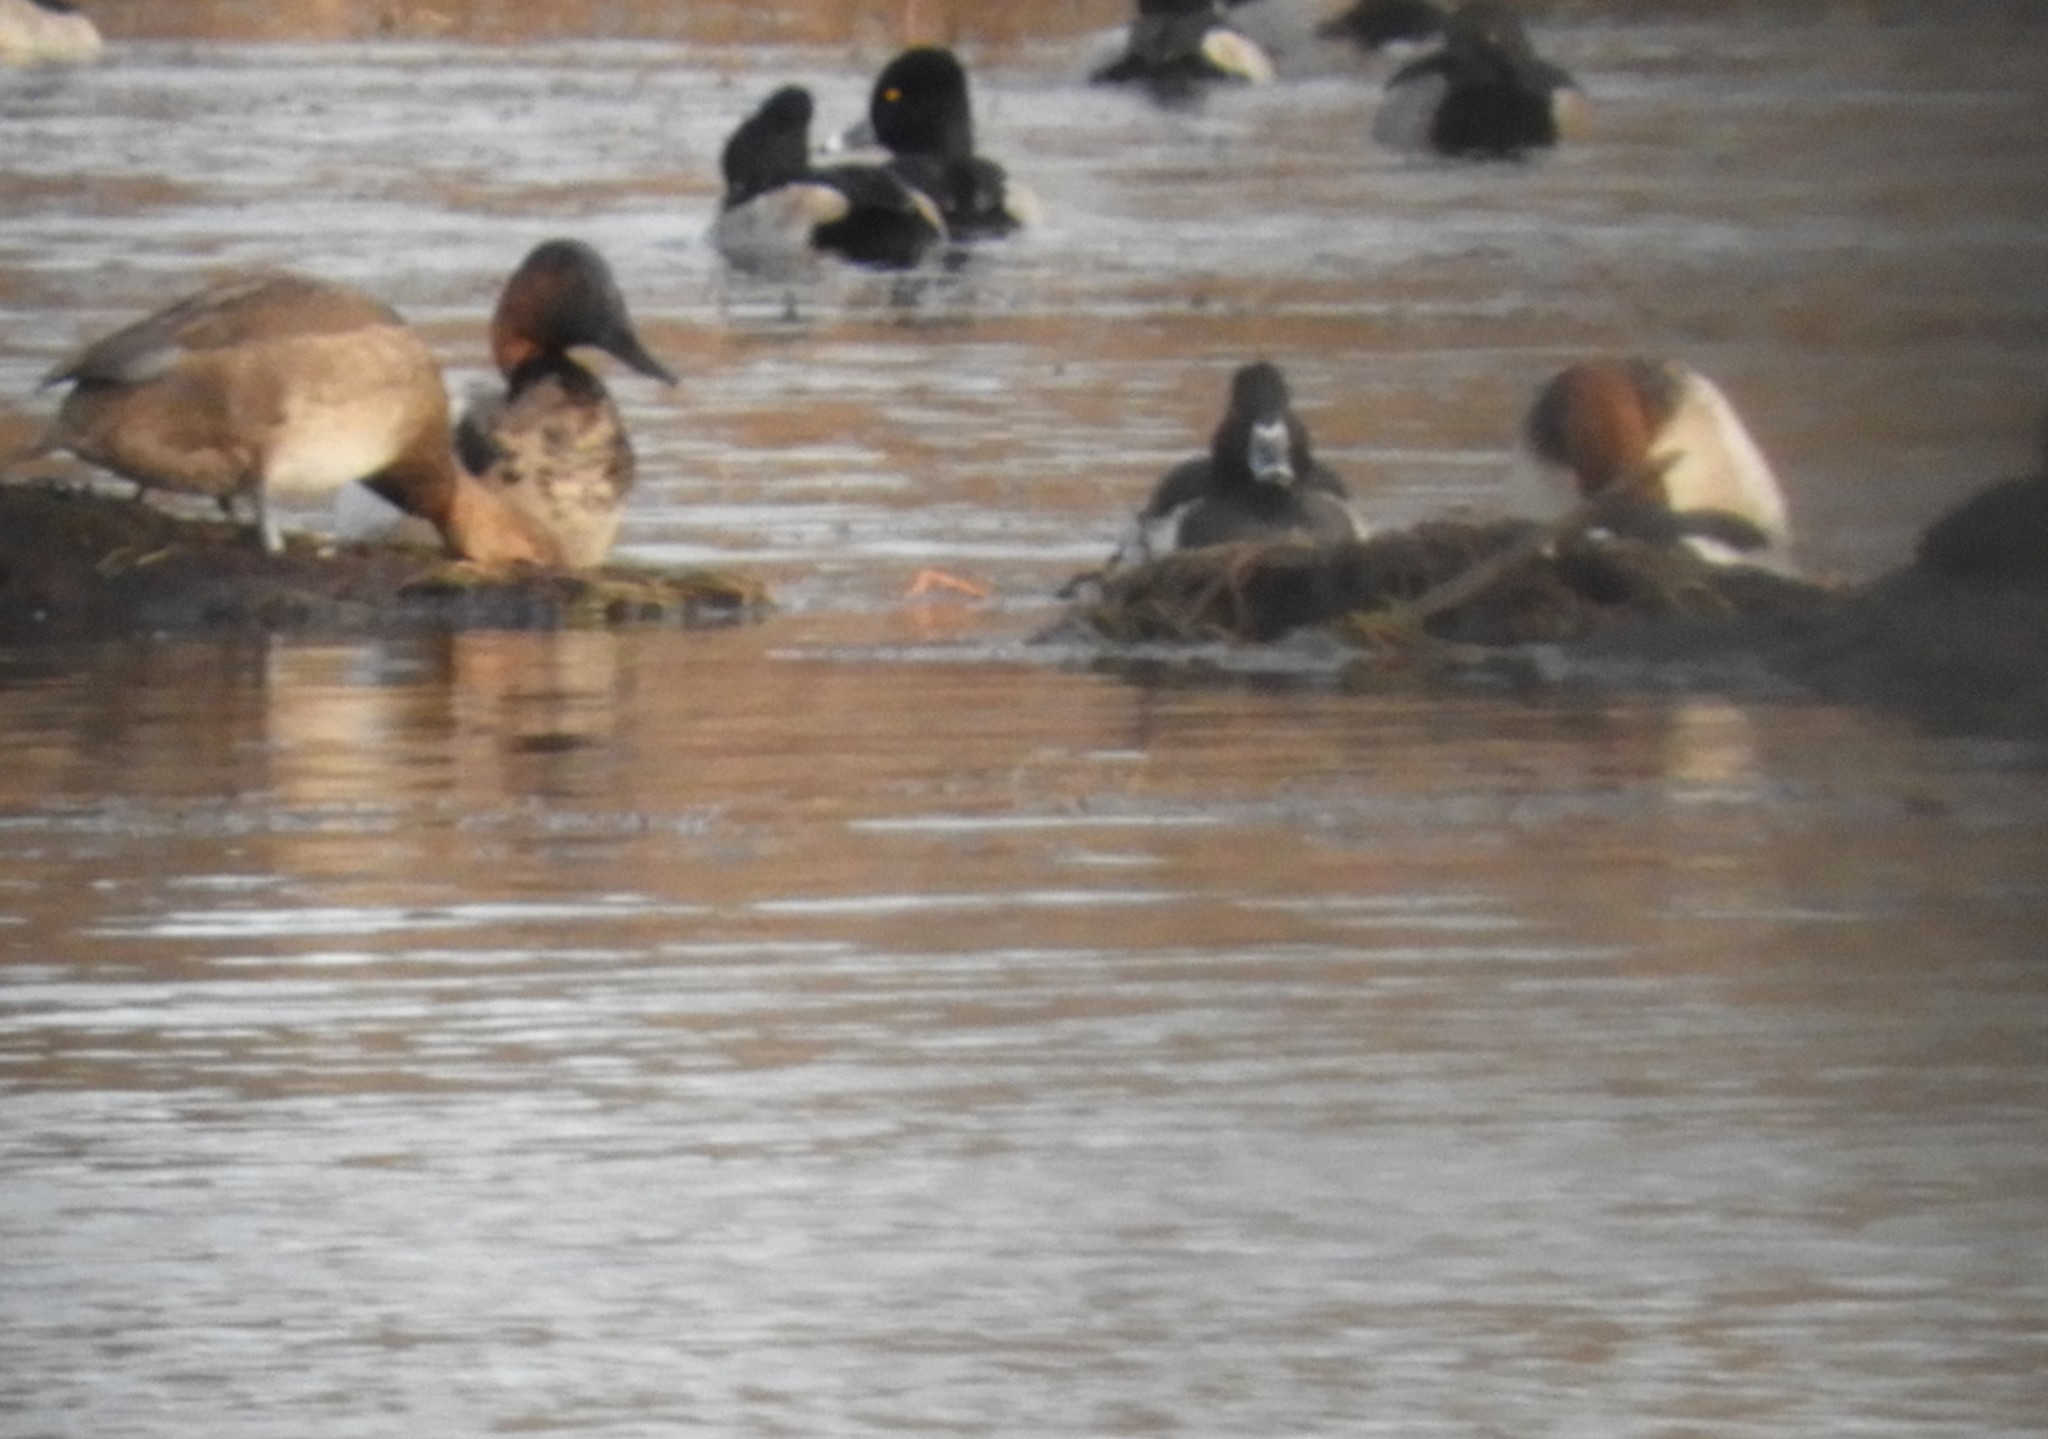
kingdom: Animalia
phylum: Chordata
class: Aves
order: Anseriformes
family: Anatidae
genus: Aythya
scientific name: Aythya valisineria
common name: Canvasback
